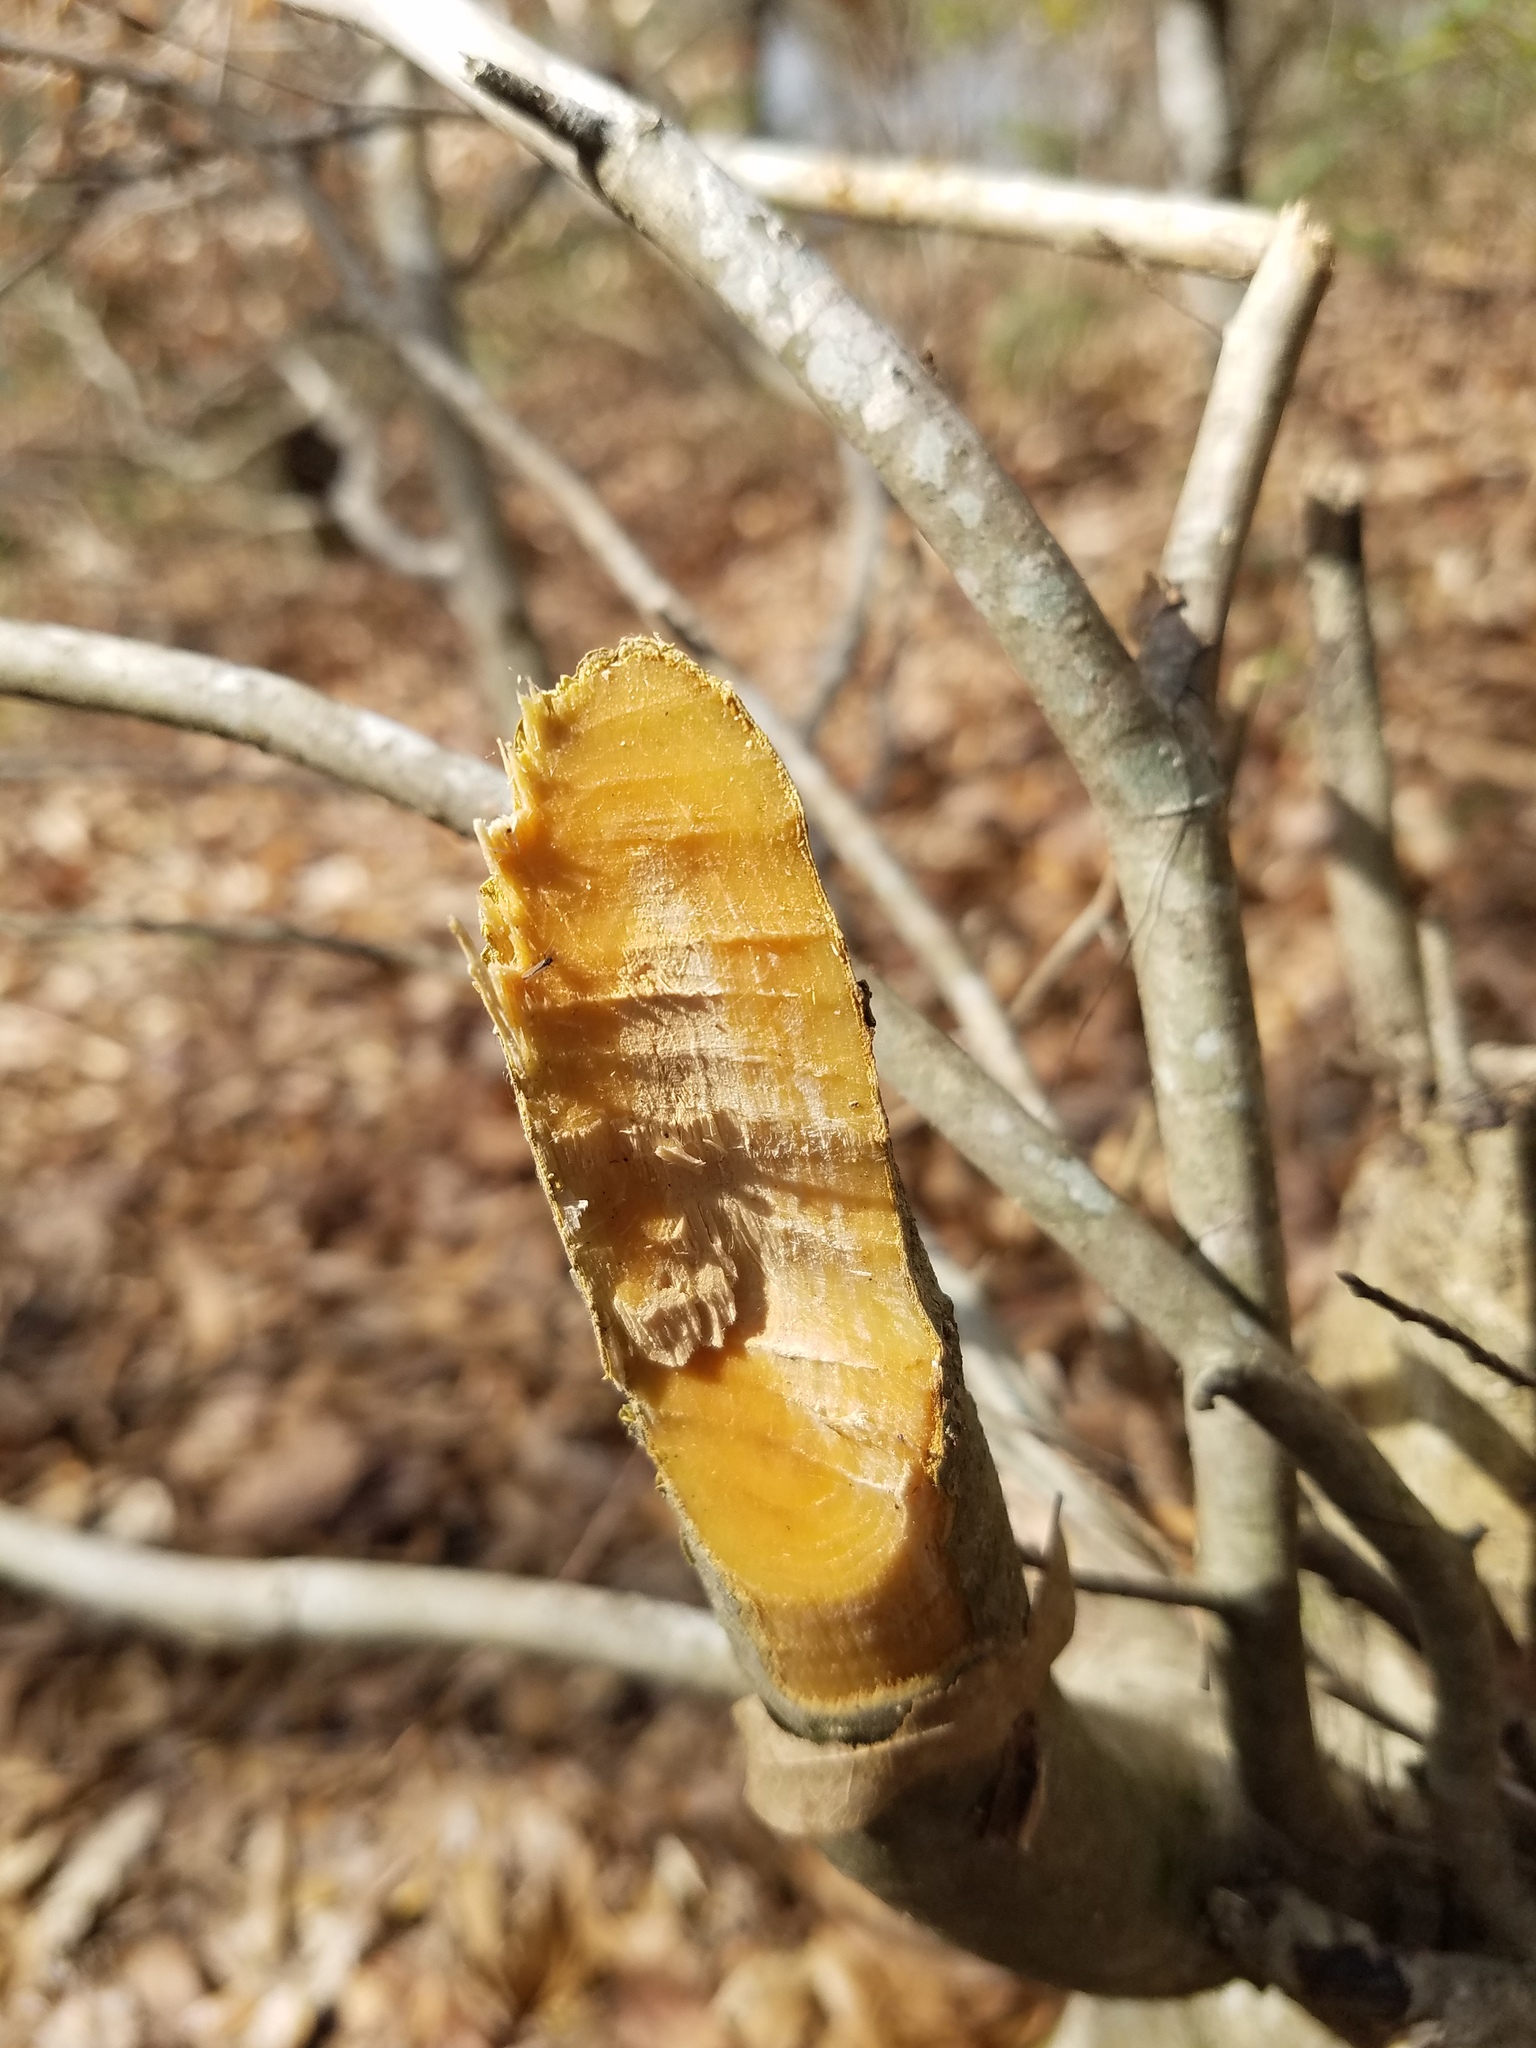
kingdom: Animalia
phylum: Chordata
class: Mammalia
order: Rodentia
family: Castoridae
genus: Castor
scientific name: Castor canadensis
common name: American beaver
